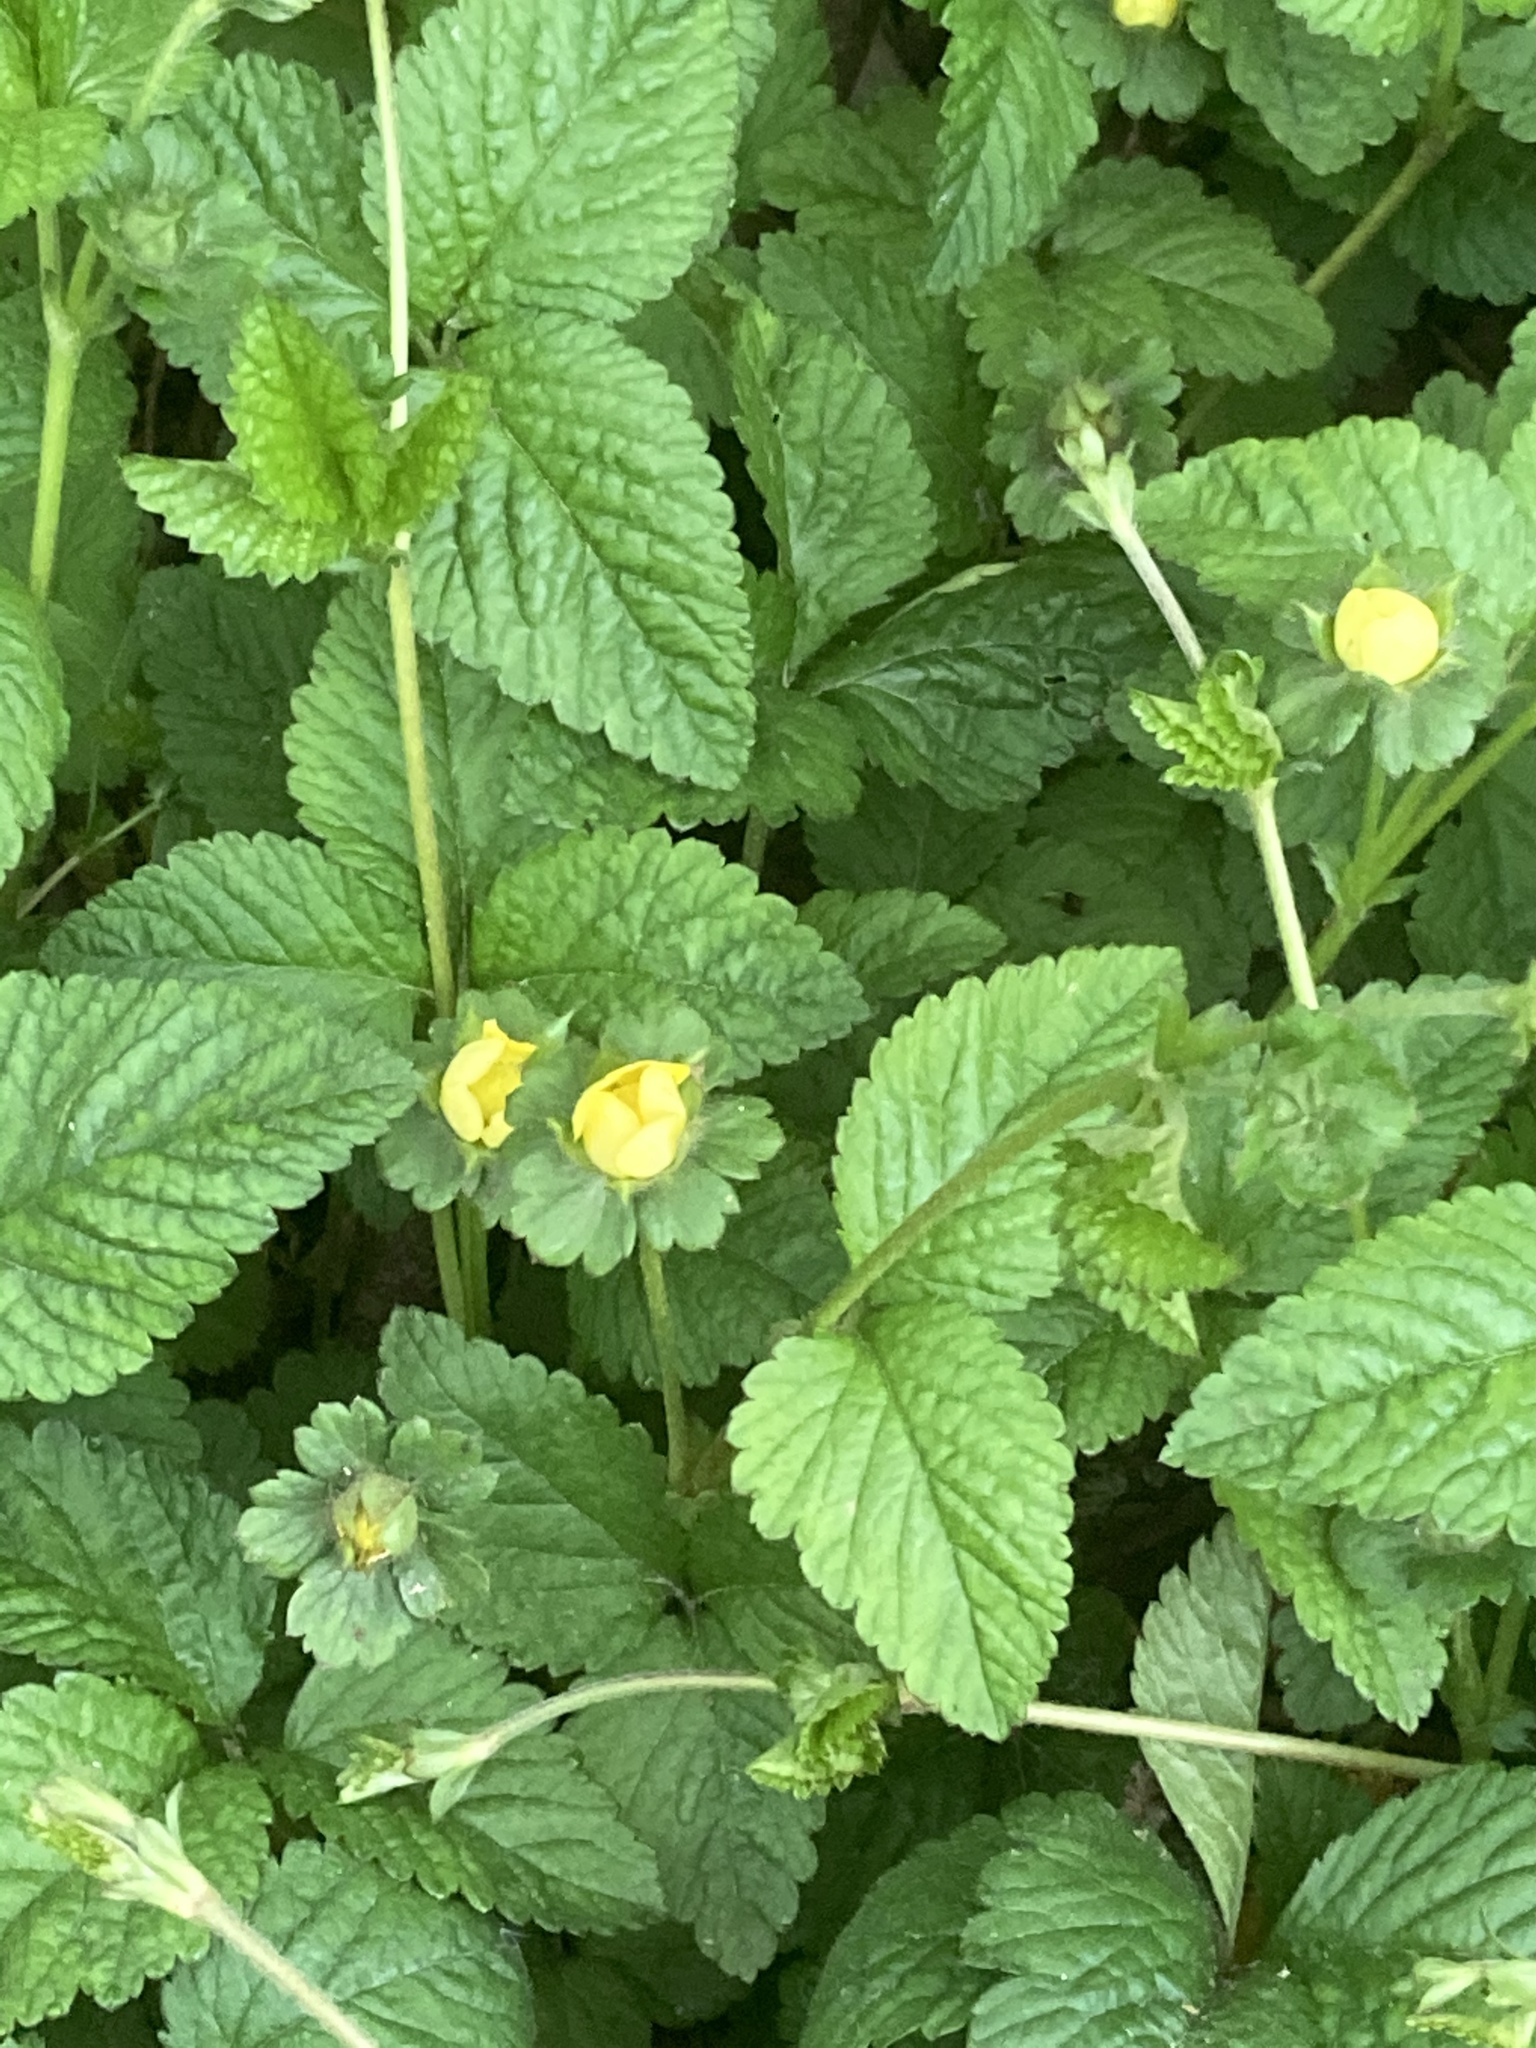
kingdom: Plantae
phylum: Tracheophyta
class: Magnoliopsida
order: Rosales
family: Rosaceae
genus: Potentilla
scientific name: Potentilla indica
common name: Yellow-flowered strawberry
